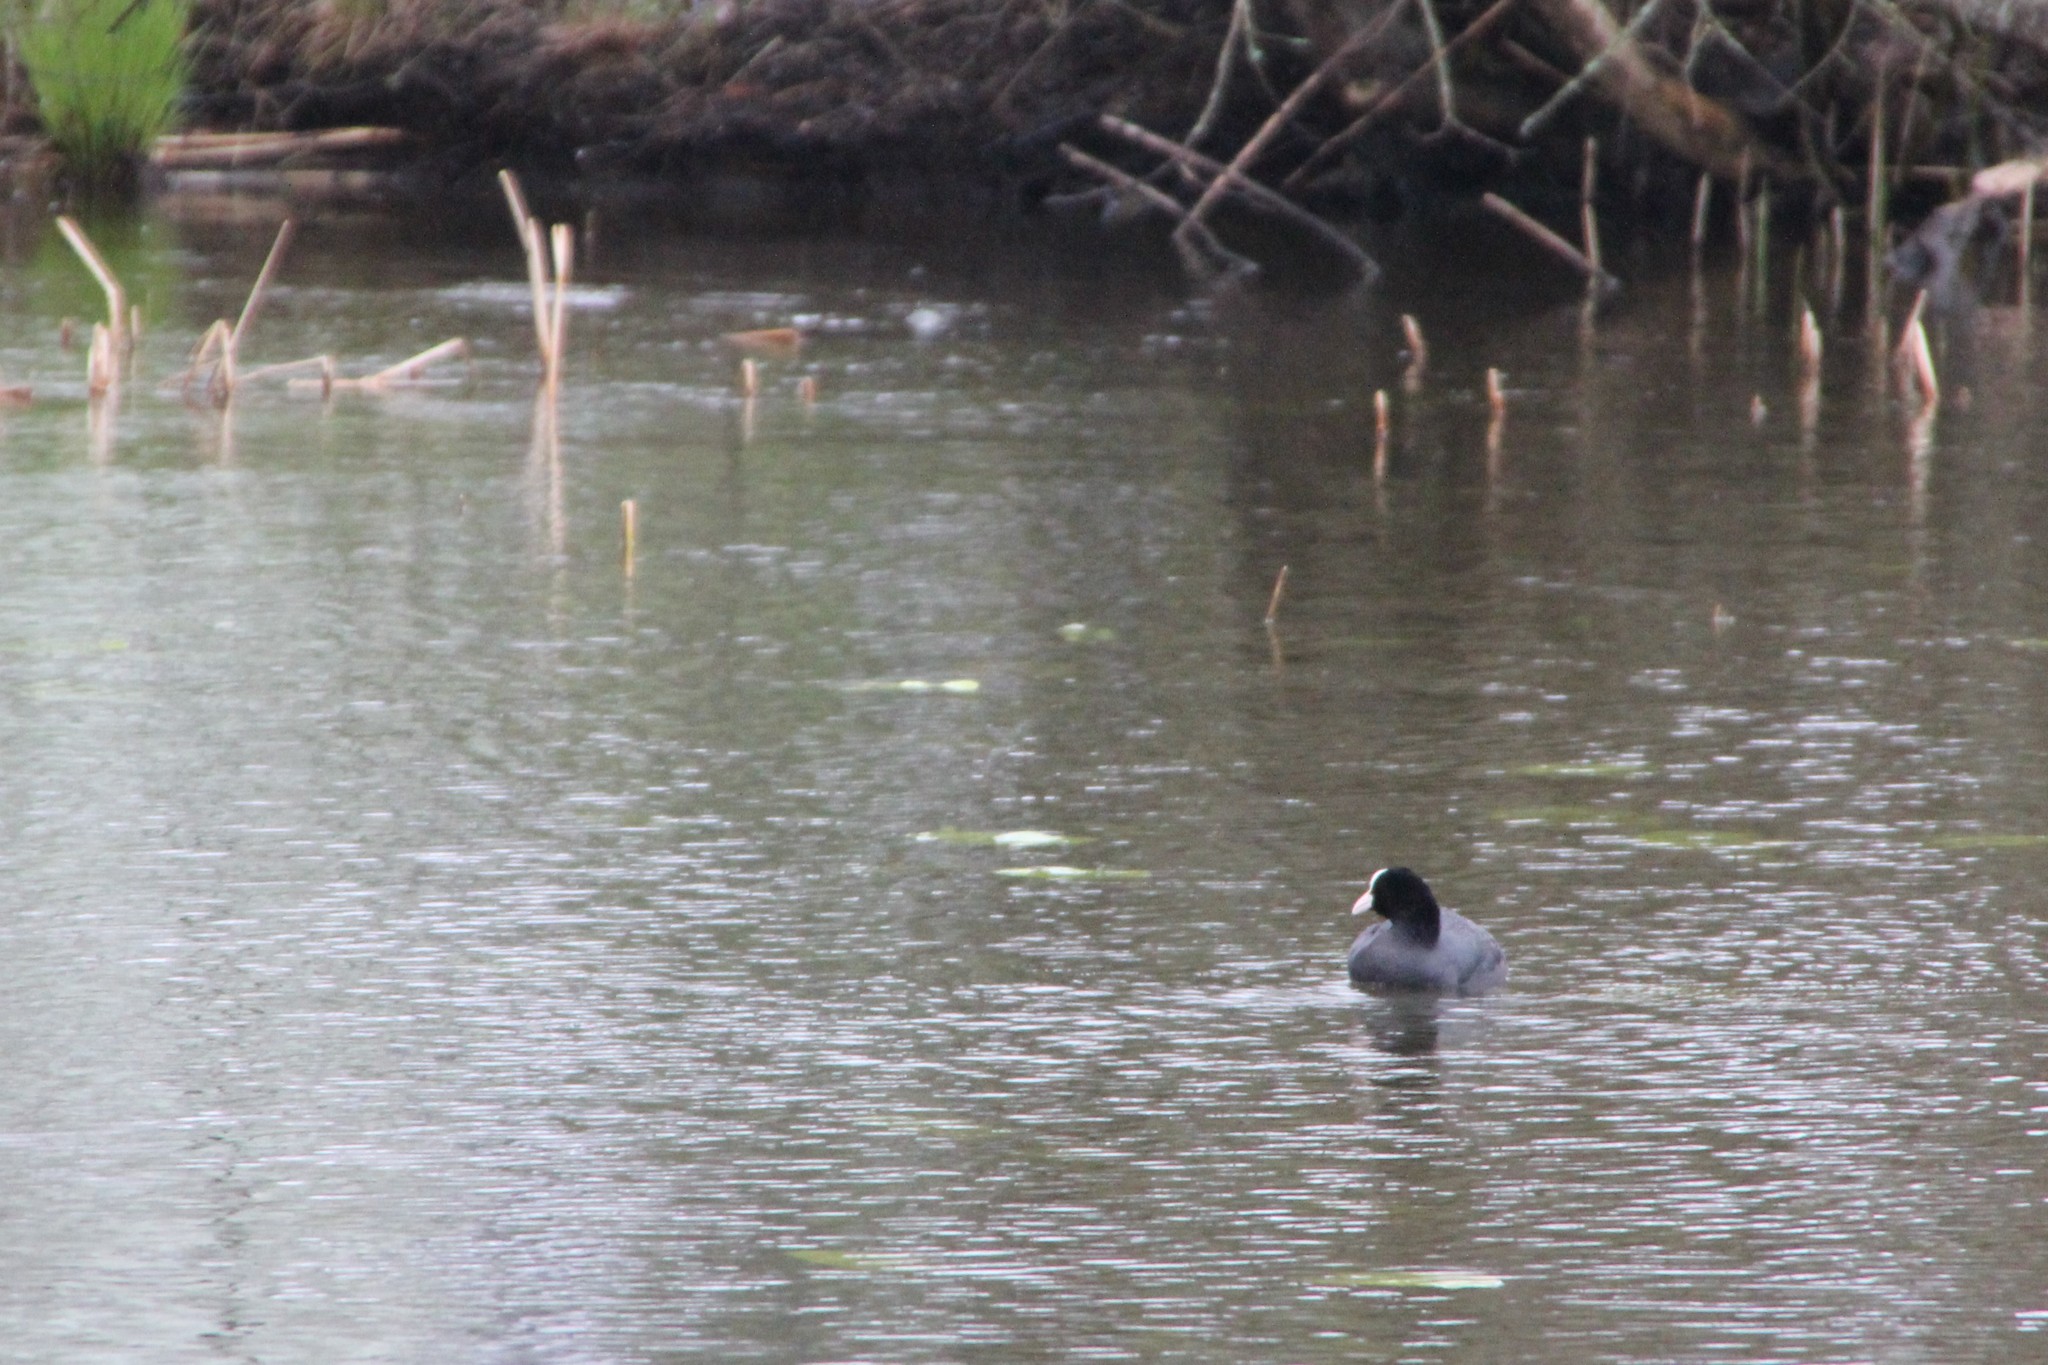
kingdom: Animalia
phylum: Chordata
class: Aves
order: Gruiformes
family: Rallidae
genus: Fulica
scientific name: Fulica atra
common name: Eurasian coot
